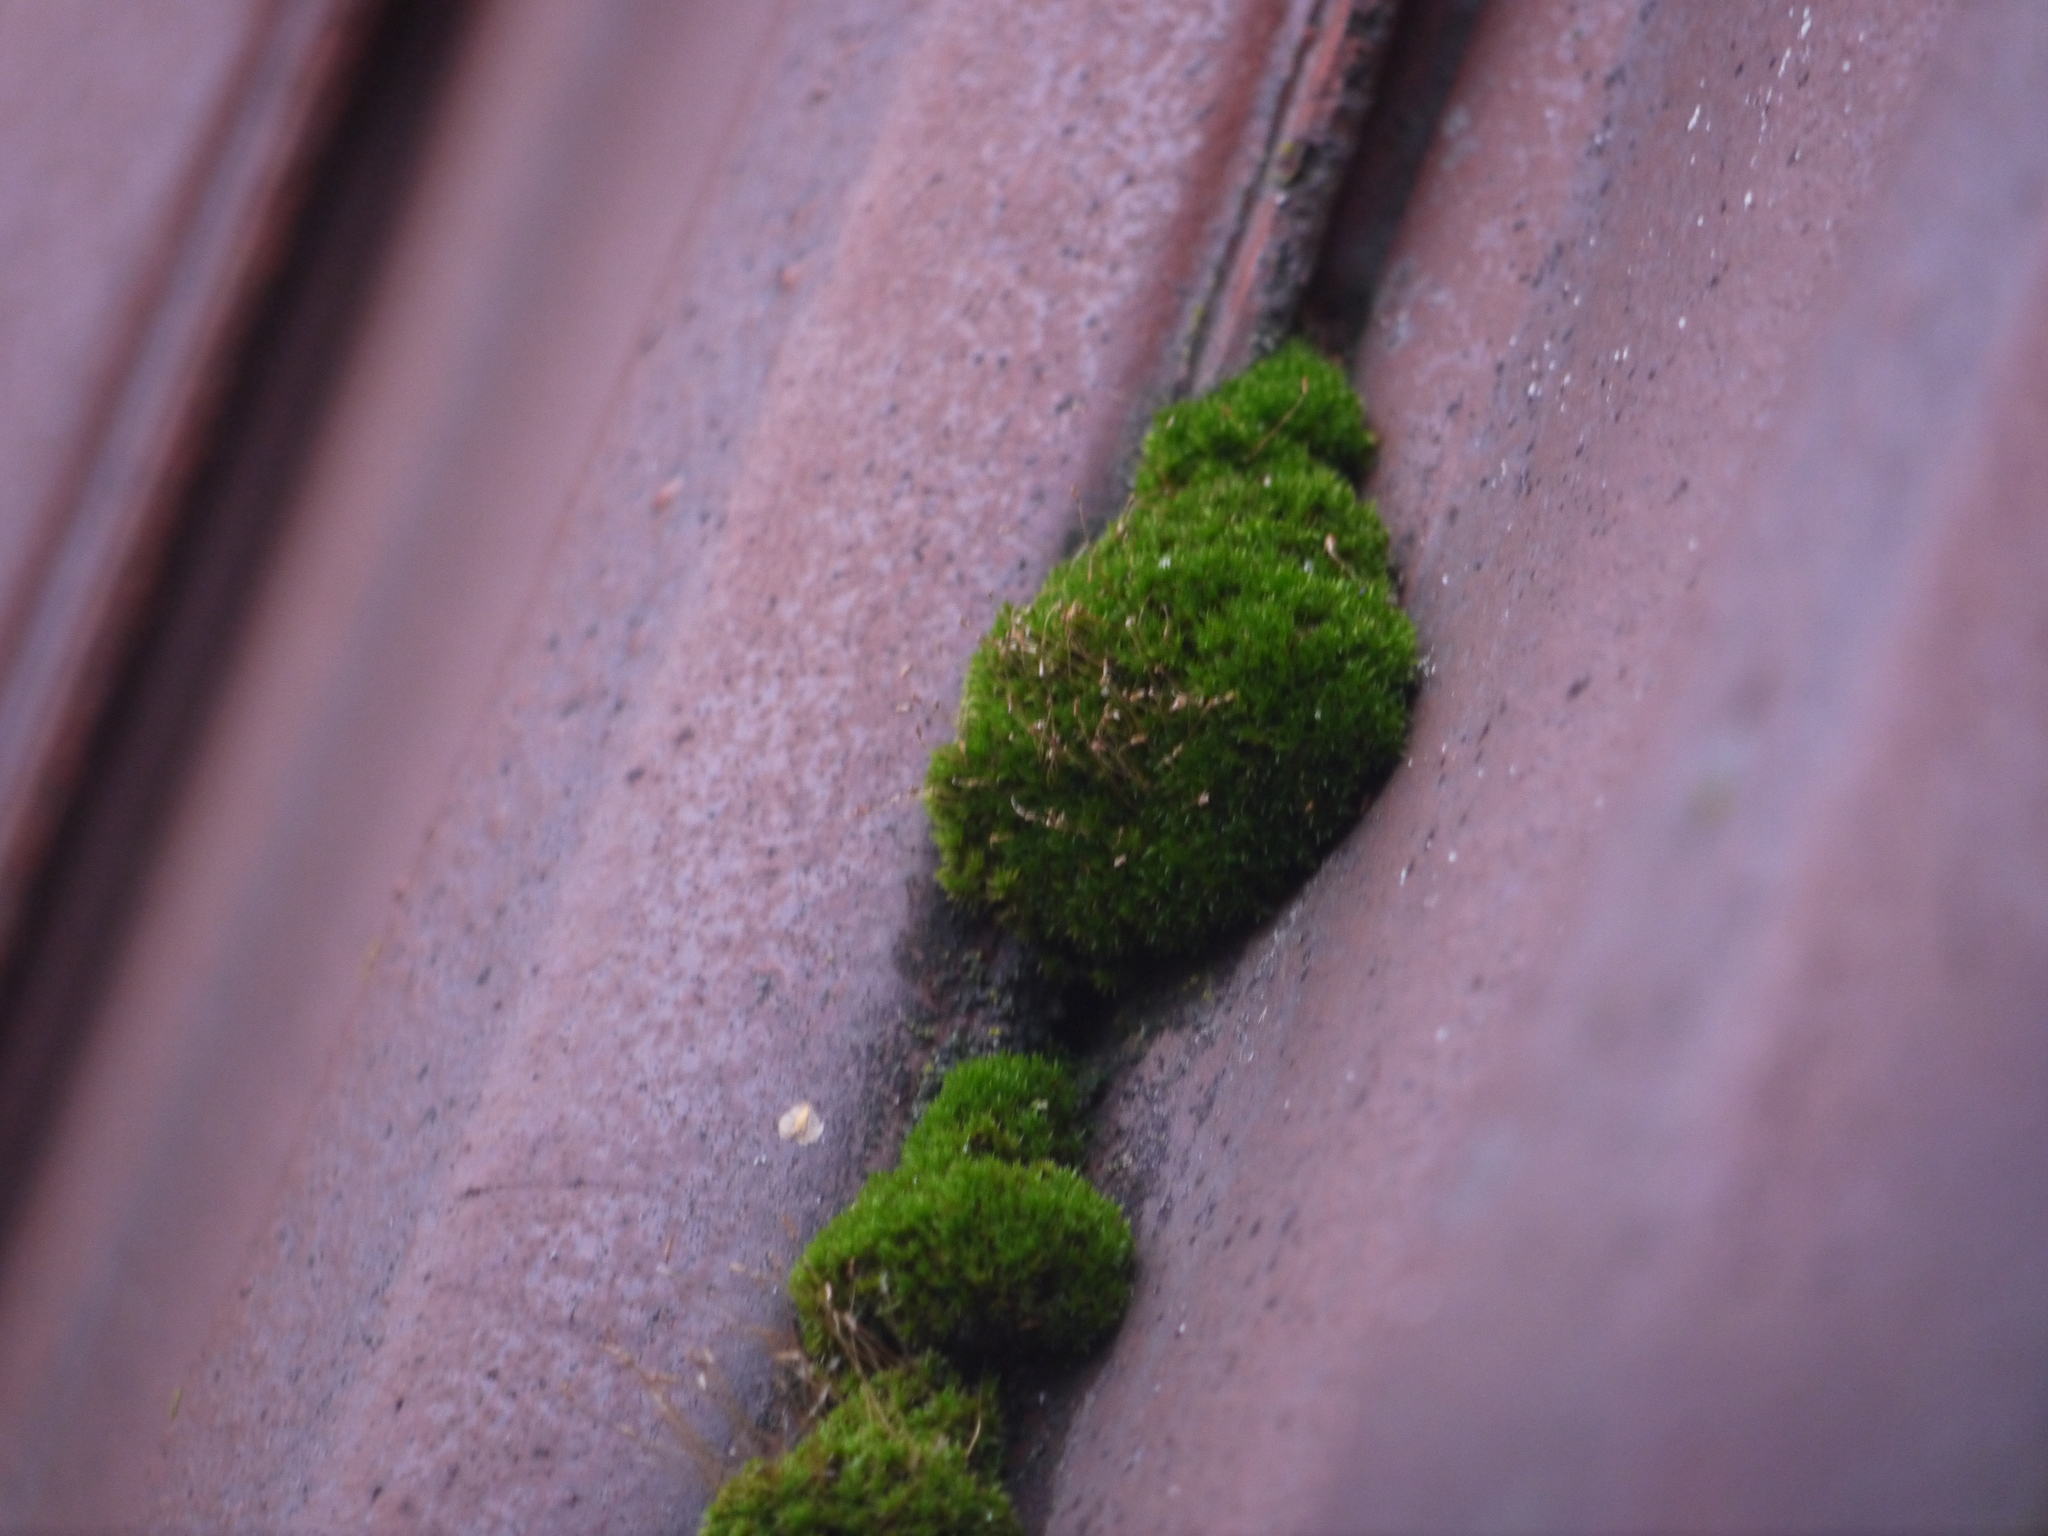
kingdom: Plantae
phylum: Bryophyta
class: Bryopsida
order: Dicranales
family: Ditrichaceae
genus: Ceratodon
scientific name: Ceratodon purpureus
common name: Redshank
